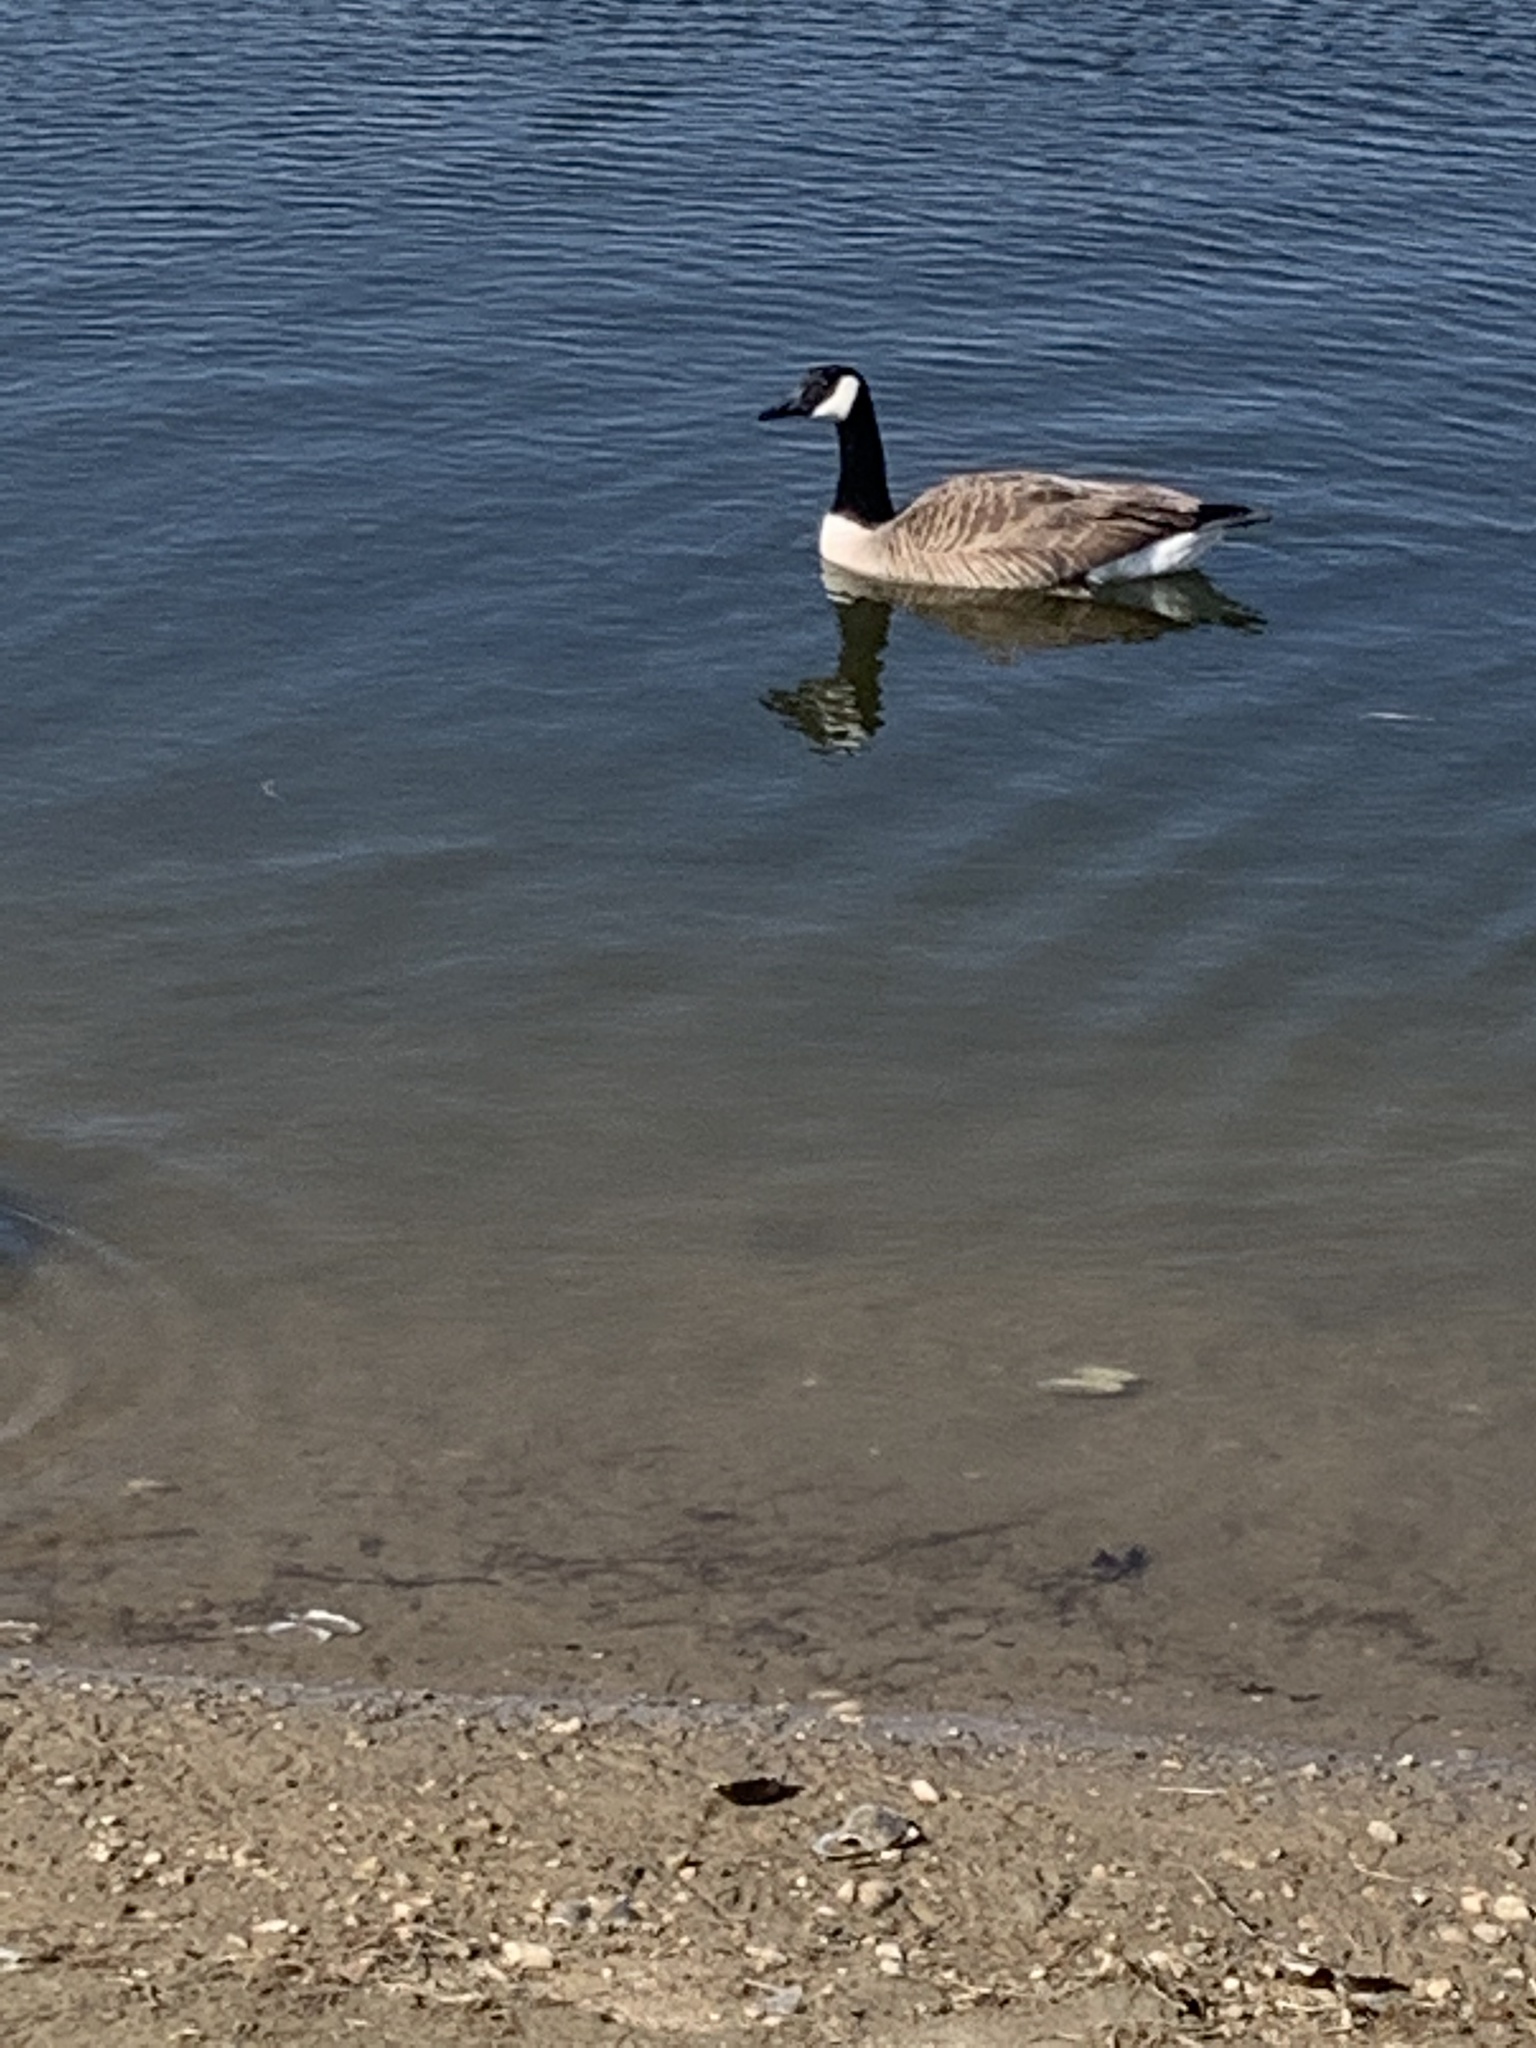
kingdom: Animalia
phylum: Chordata
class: Aves
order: Anseriformes
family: Anatidae
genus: Branta
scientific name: Branta canadensis
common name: Canada goose
